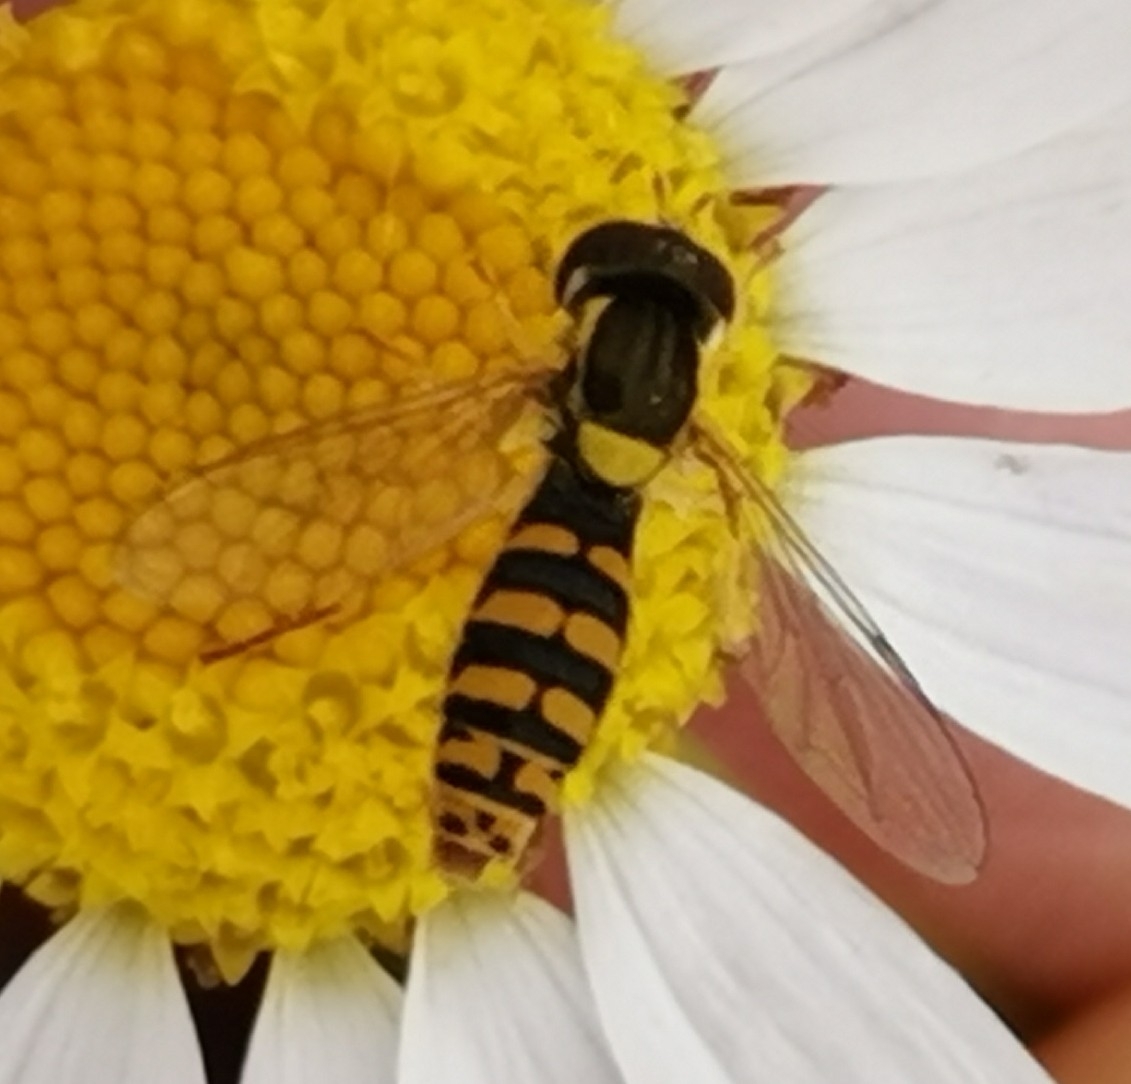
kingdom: Animalia
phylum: Arthropoda
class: Insecta
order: Diptera
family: Syrphidae
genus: Sphaerophoria
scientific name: Sphaerophoria
